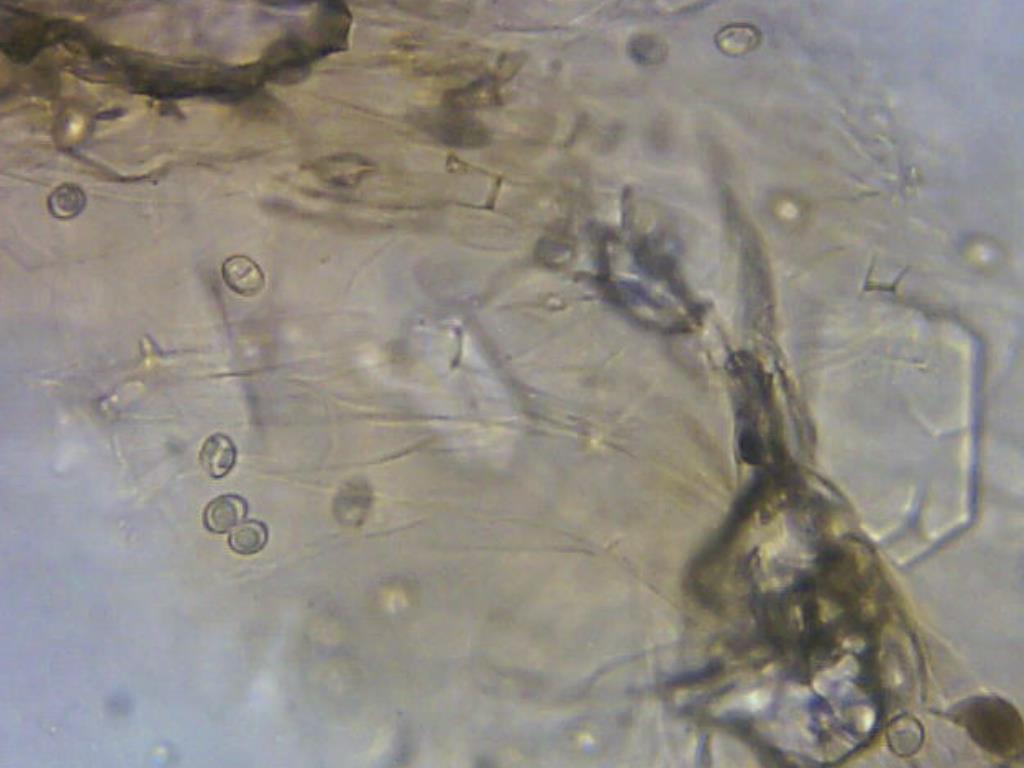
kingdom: Fungi
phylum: Basidiomycota
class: Agaricomycetes
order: Agaricales
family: Pluteaceae
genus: Pluteus
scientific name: Pluteus cervinus
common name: Deer shield
